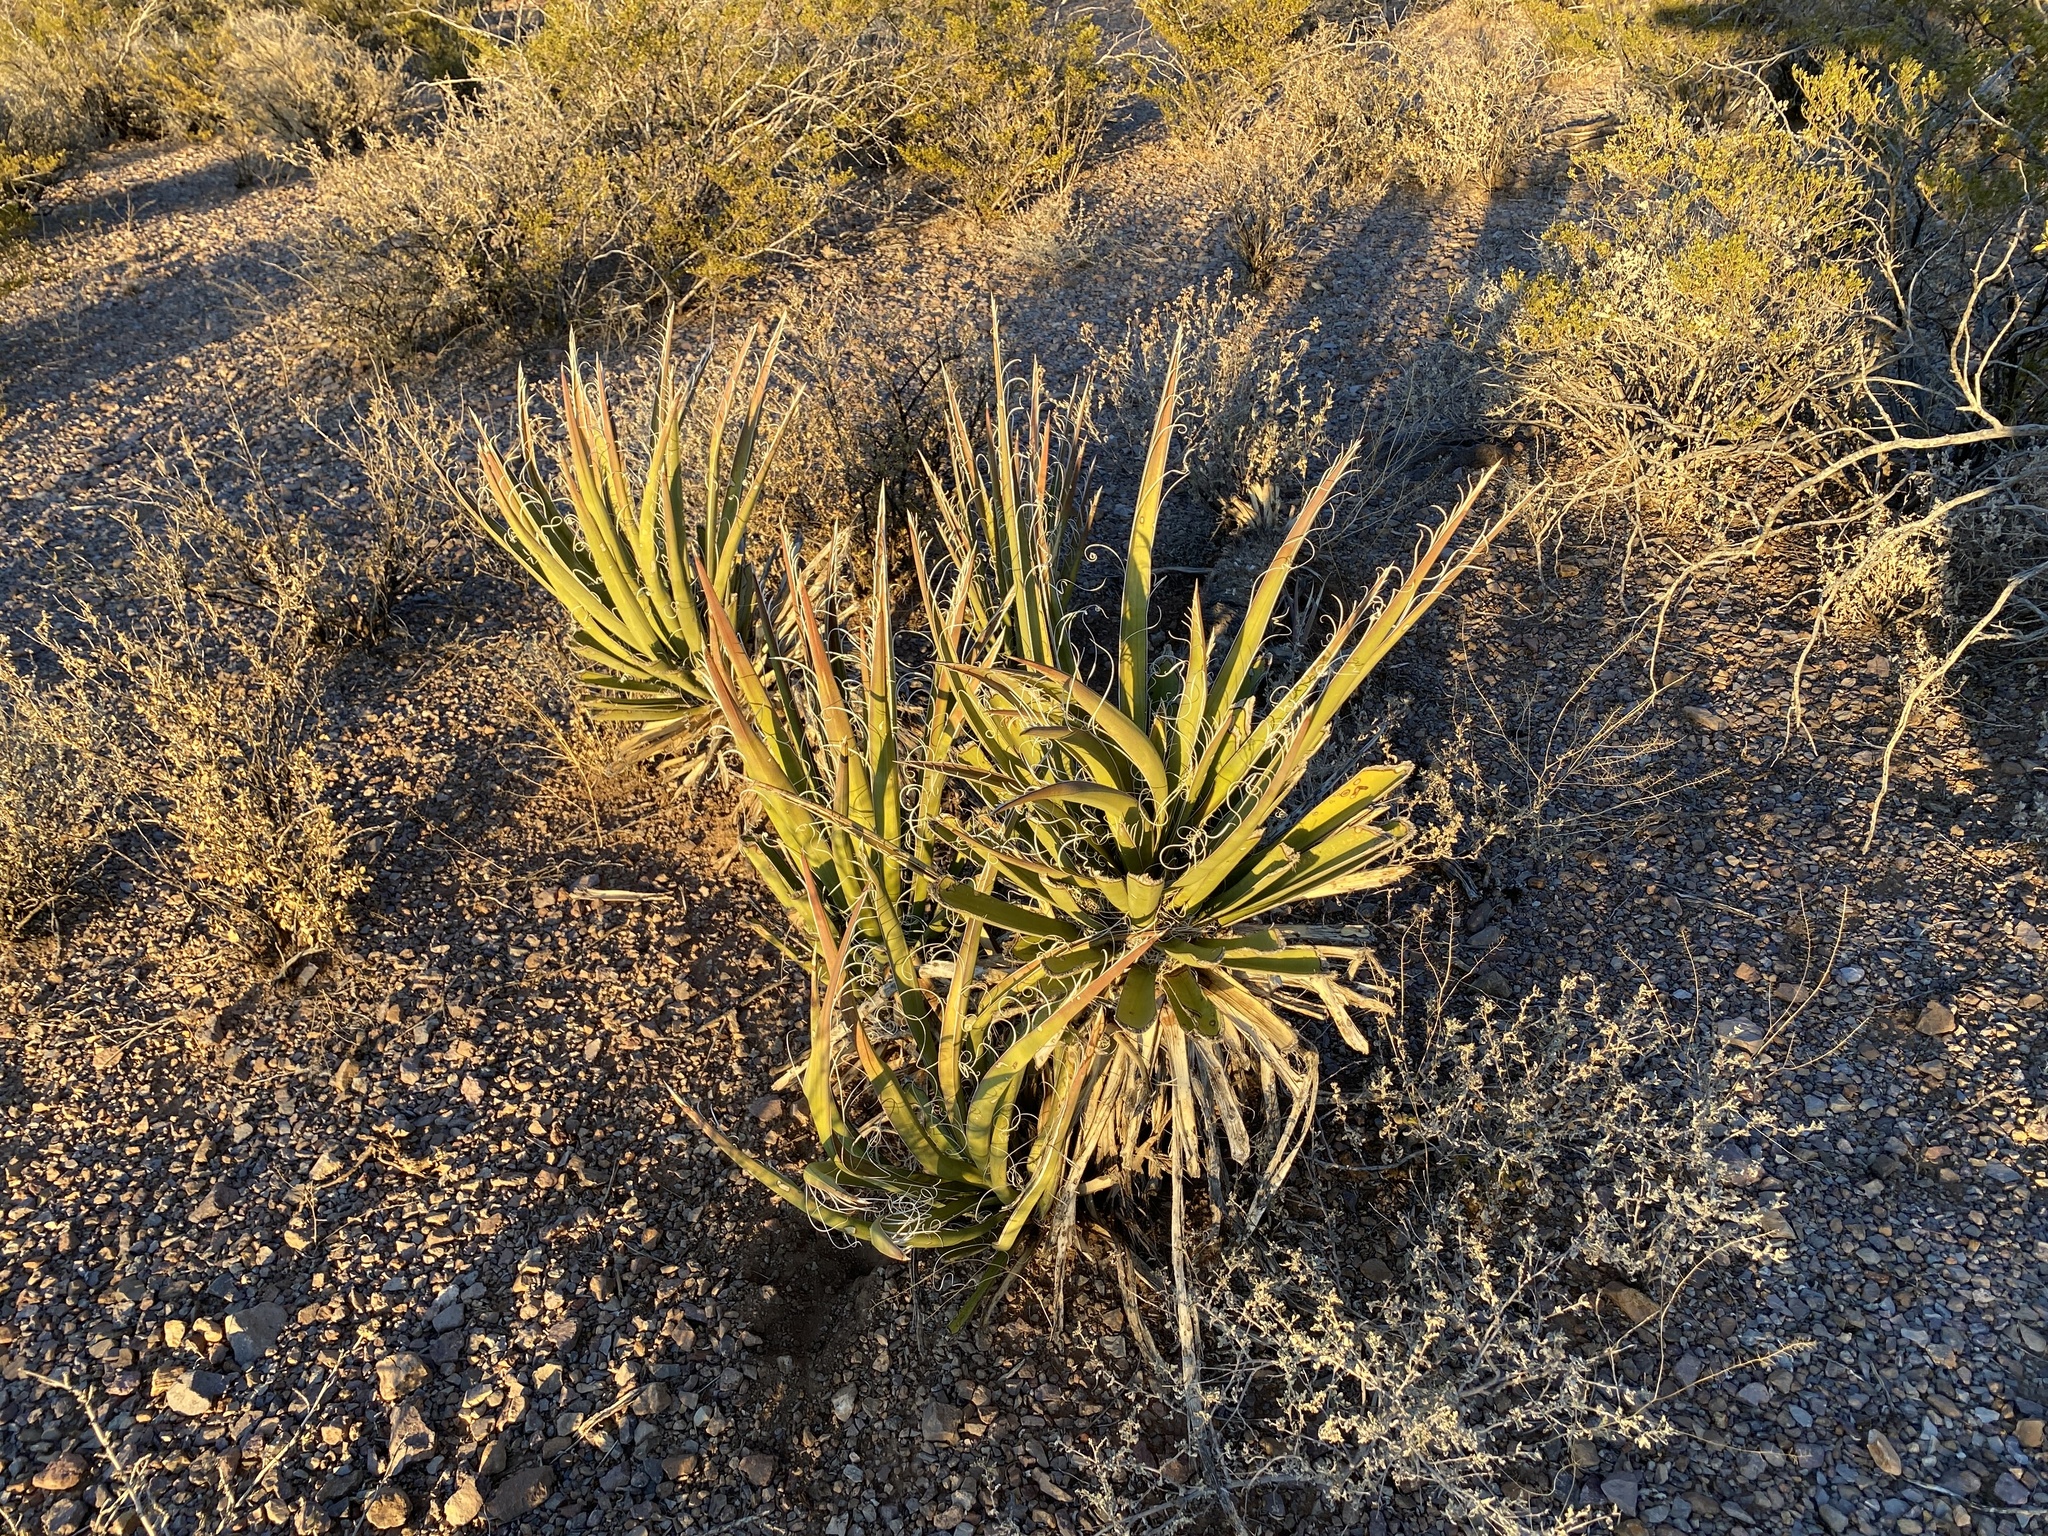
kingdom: Plantae
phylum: Tracheophyta
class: Liliopsida
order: Asparagales
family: Asparagaceae
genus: Yucca
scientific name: Yucca baccata
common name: Banana yucca
